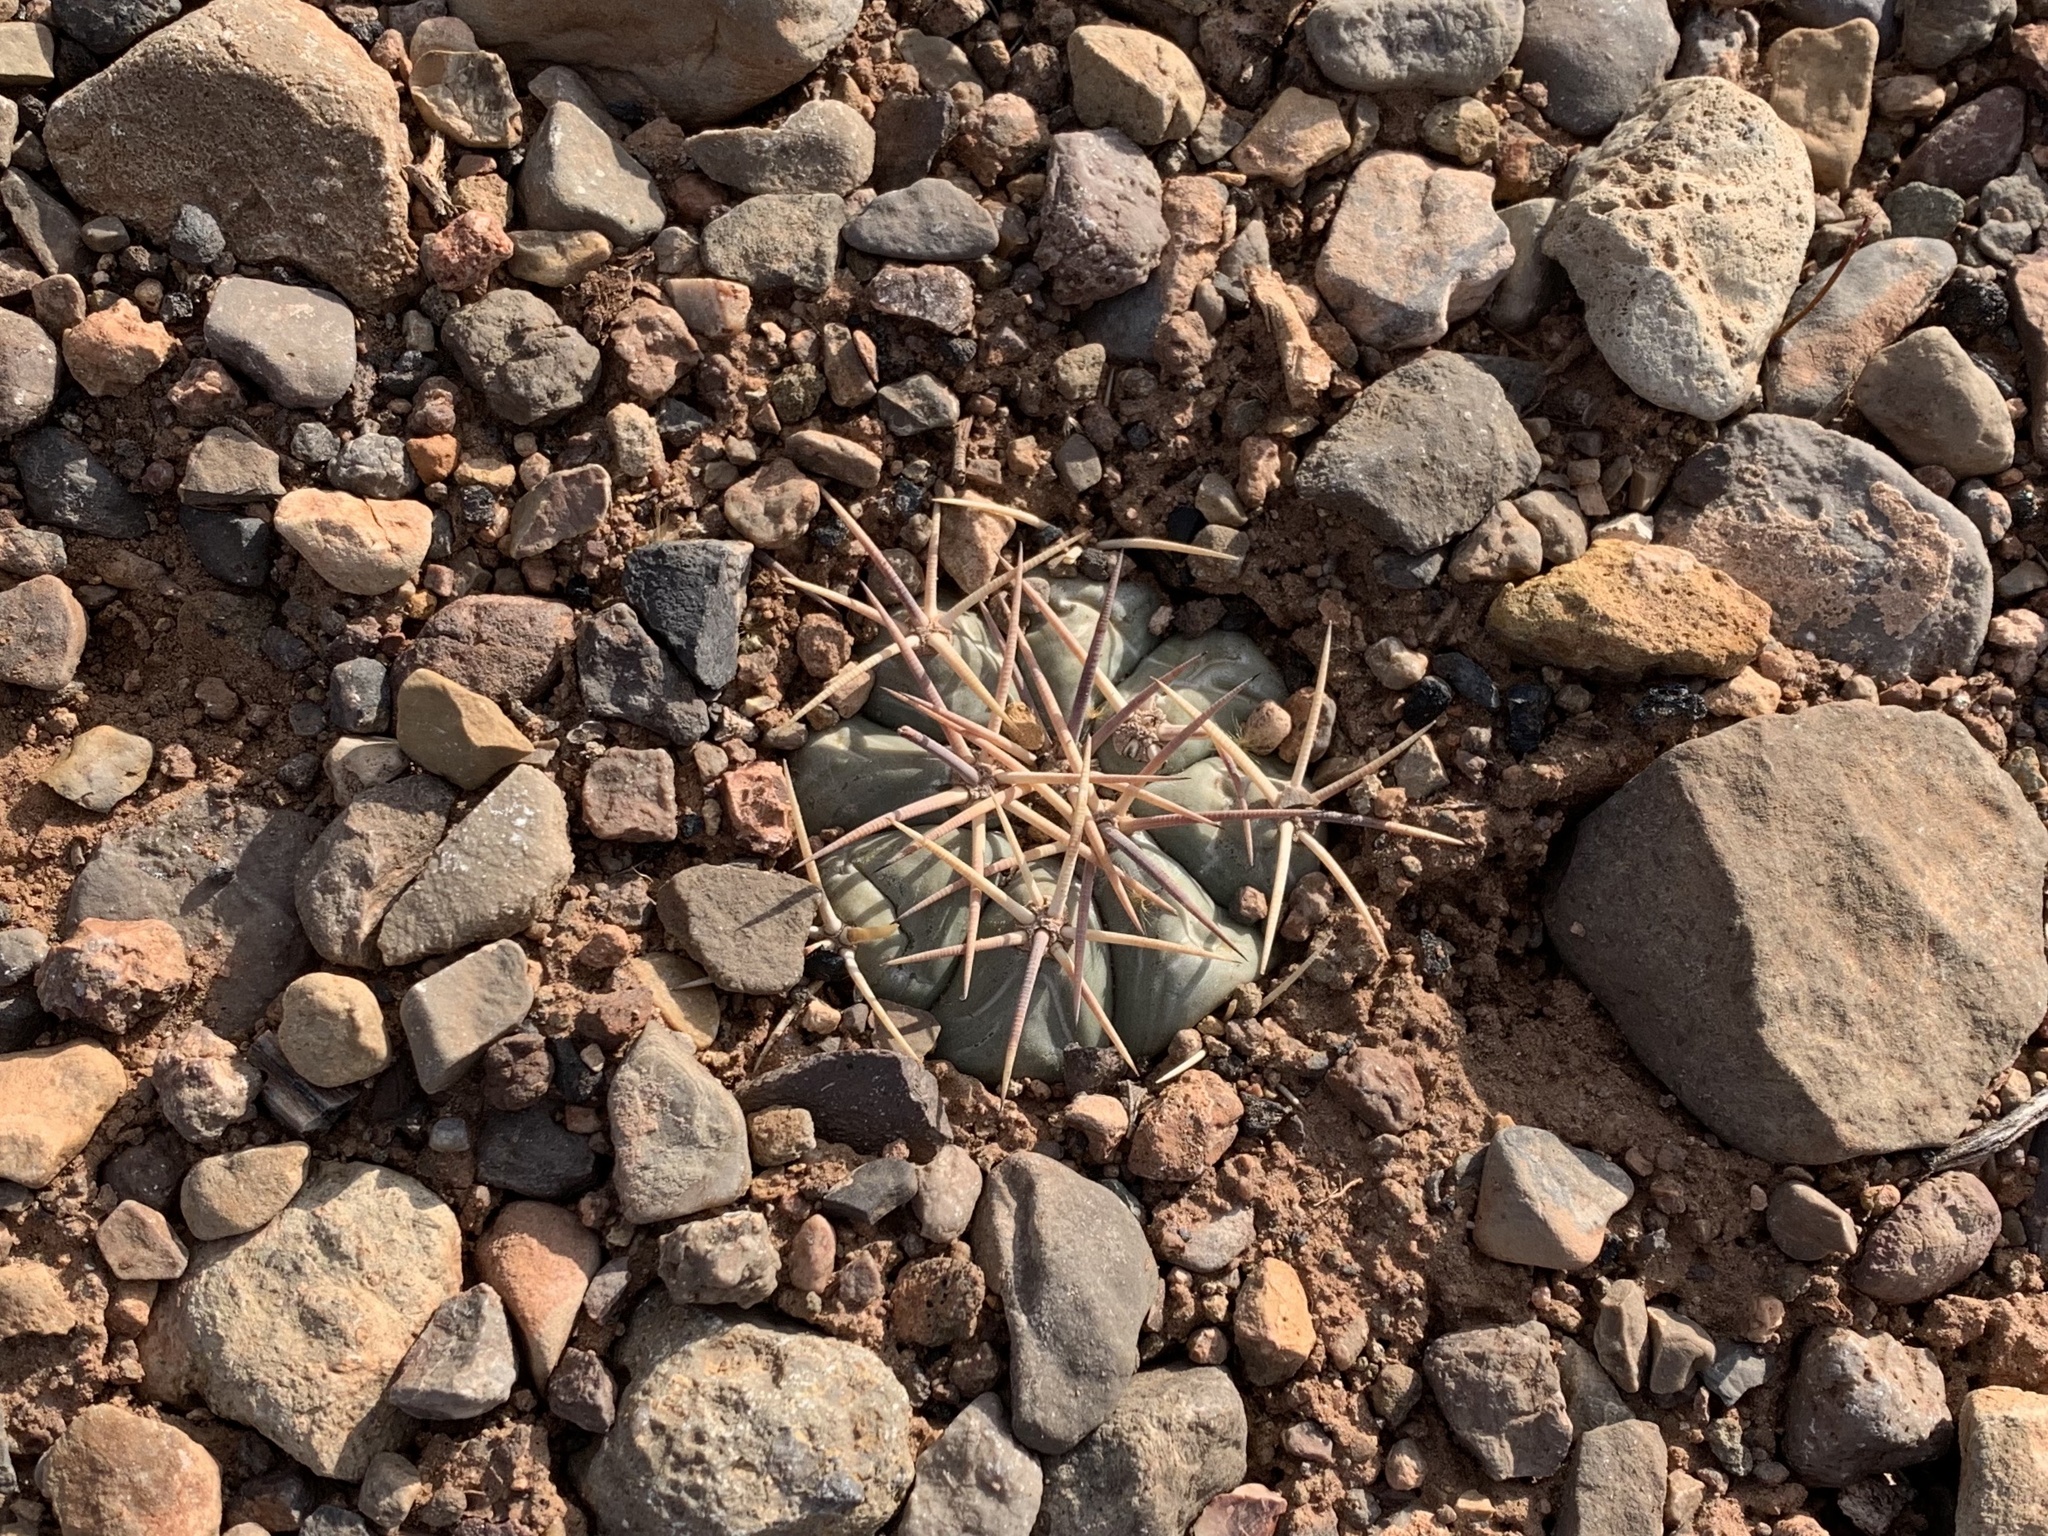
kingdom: Plantae
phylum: Tracheophyta
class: Magnoliopsida
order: Caryophyllales
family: Cactaceae
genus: Echinocactus
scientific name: Echinocactus horizonthalonius
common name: Devilshead
